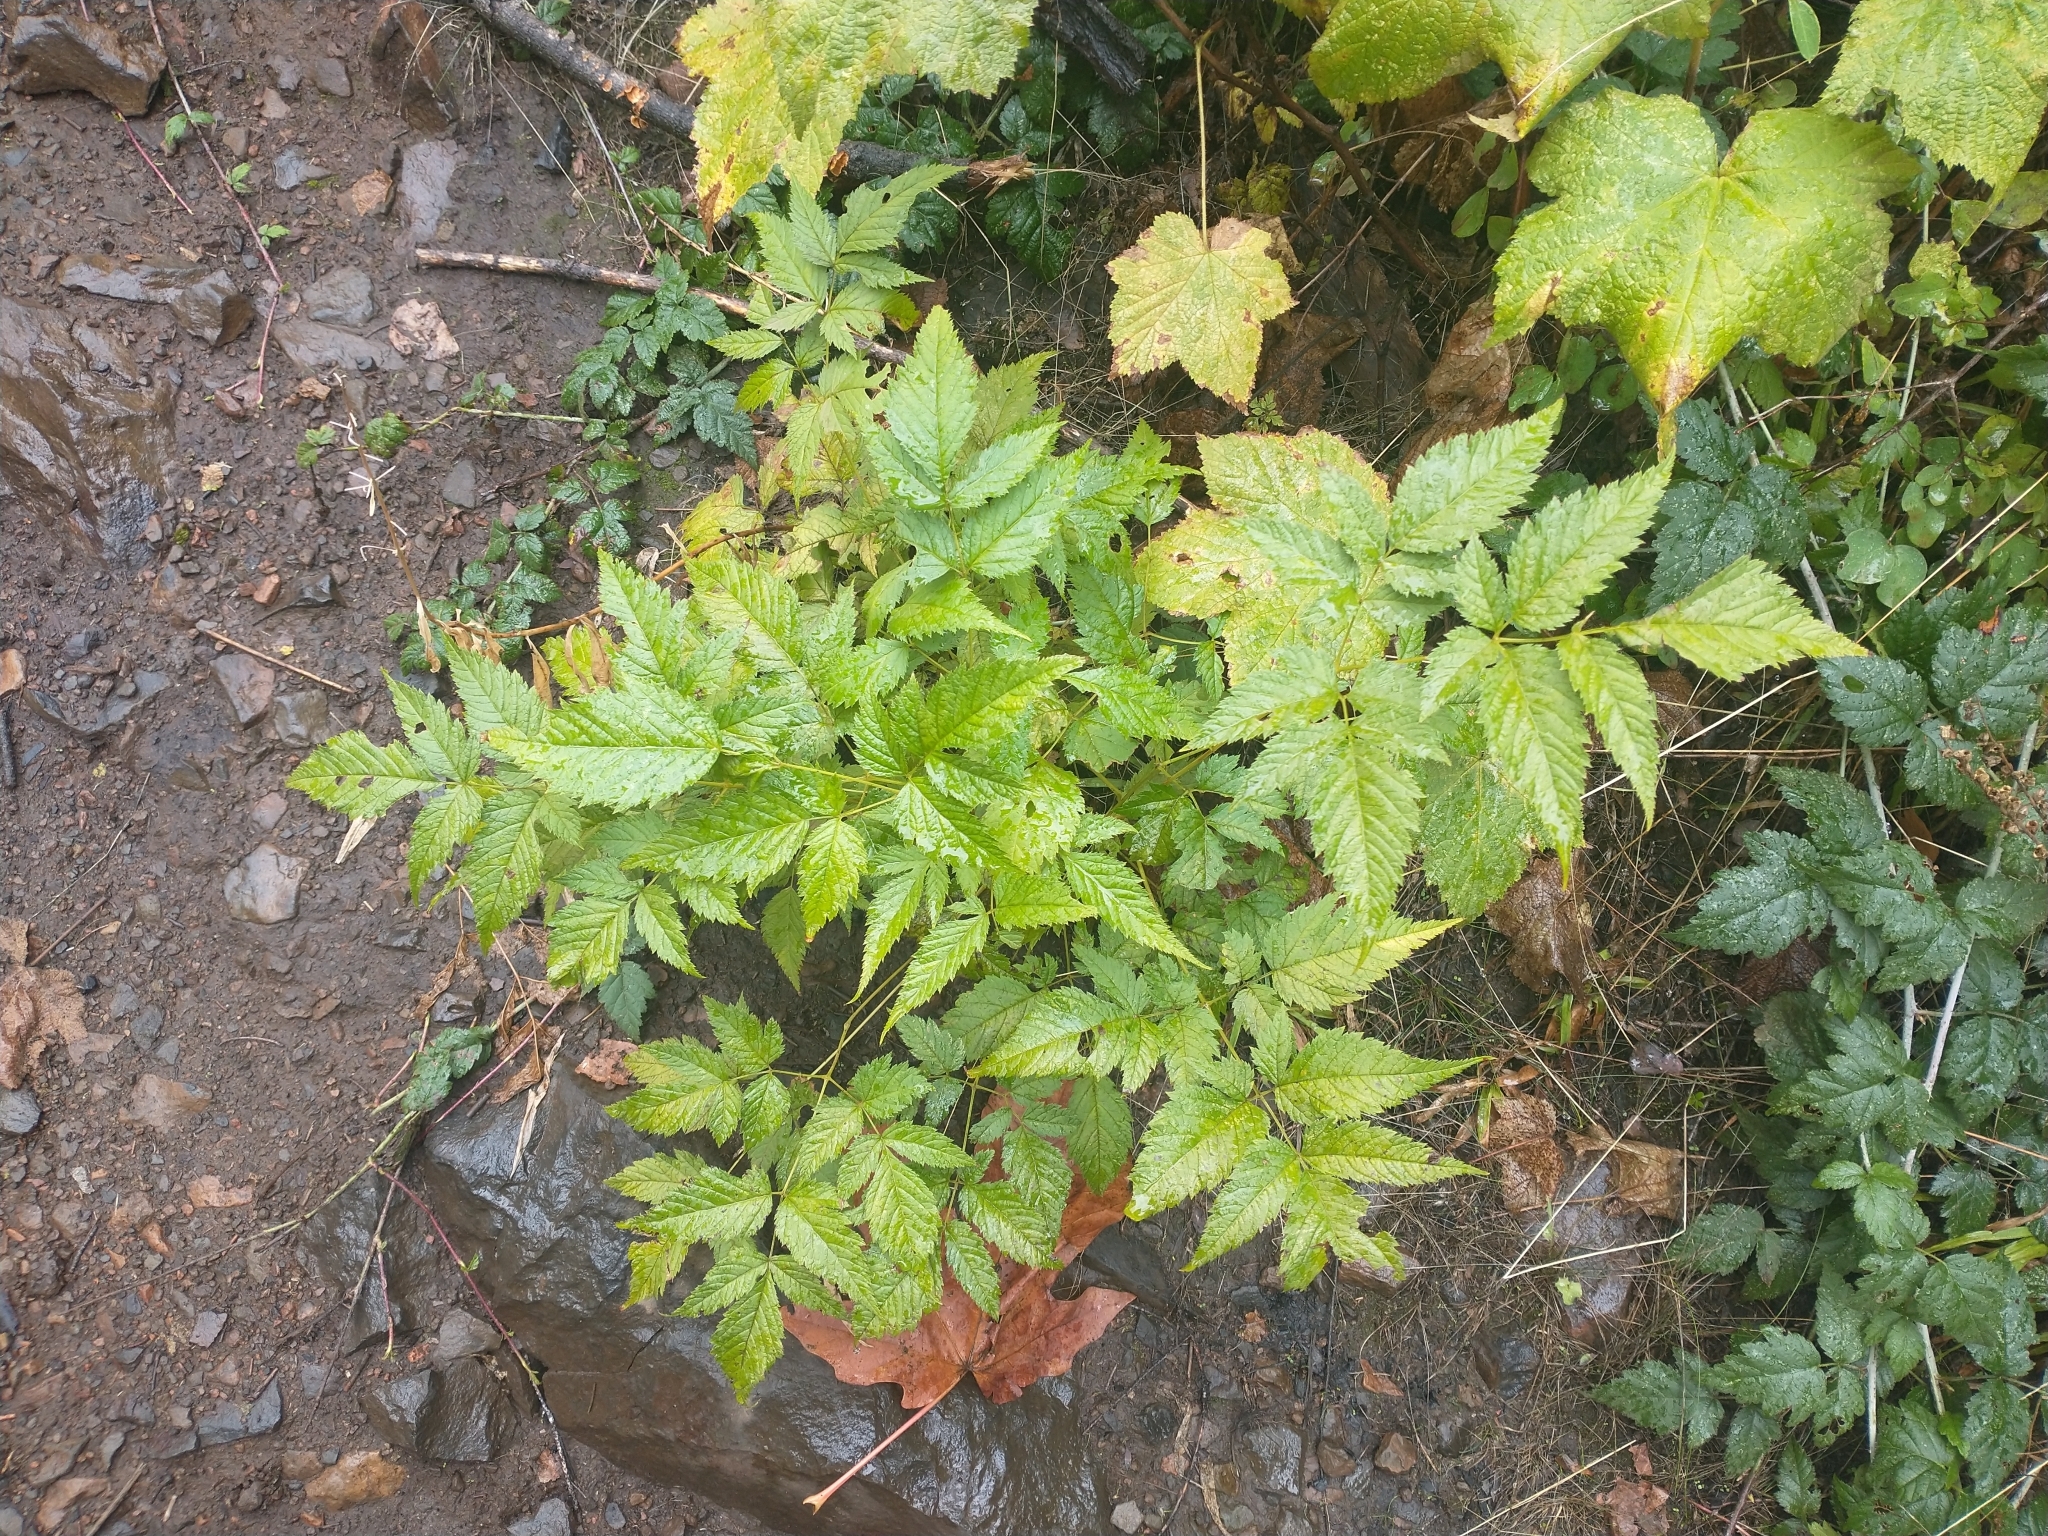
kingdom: Plantae
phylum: Tracheophyta
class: Magnoliopsida
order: Ranunculales
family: Ranunculaceae
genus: Actaea
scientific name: Actaea rubra
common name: Red baneberry
